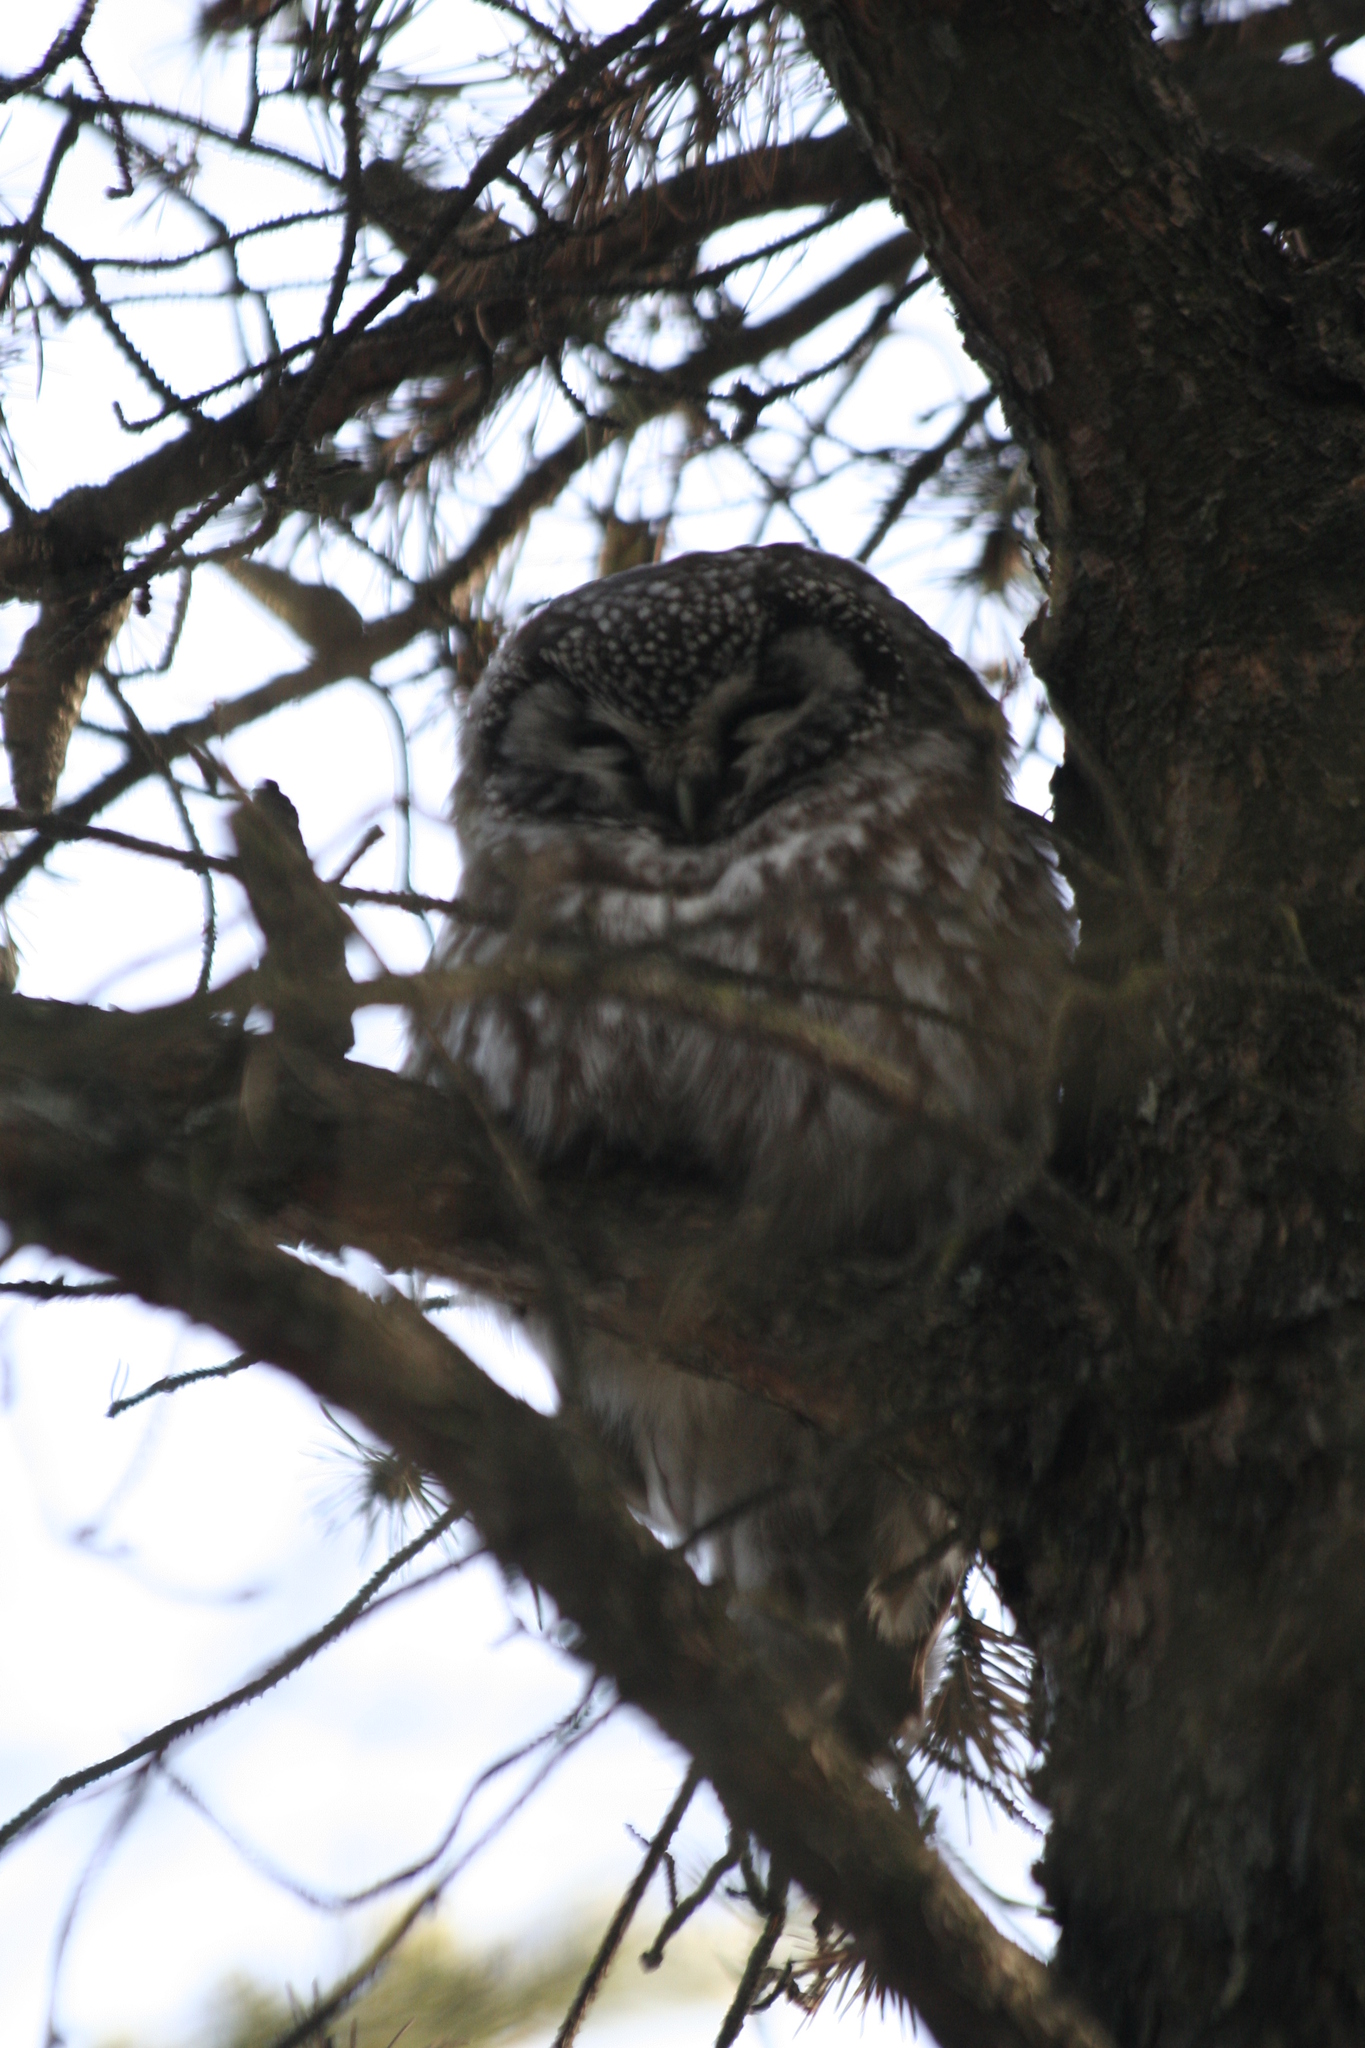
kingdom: Animalia
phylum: Chordata
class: Aves
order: Strigiformes
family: Strigidae
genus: Aegolius
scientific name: Aegolius funereus
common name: Boreal owl
